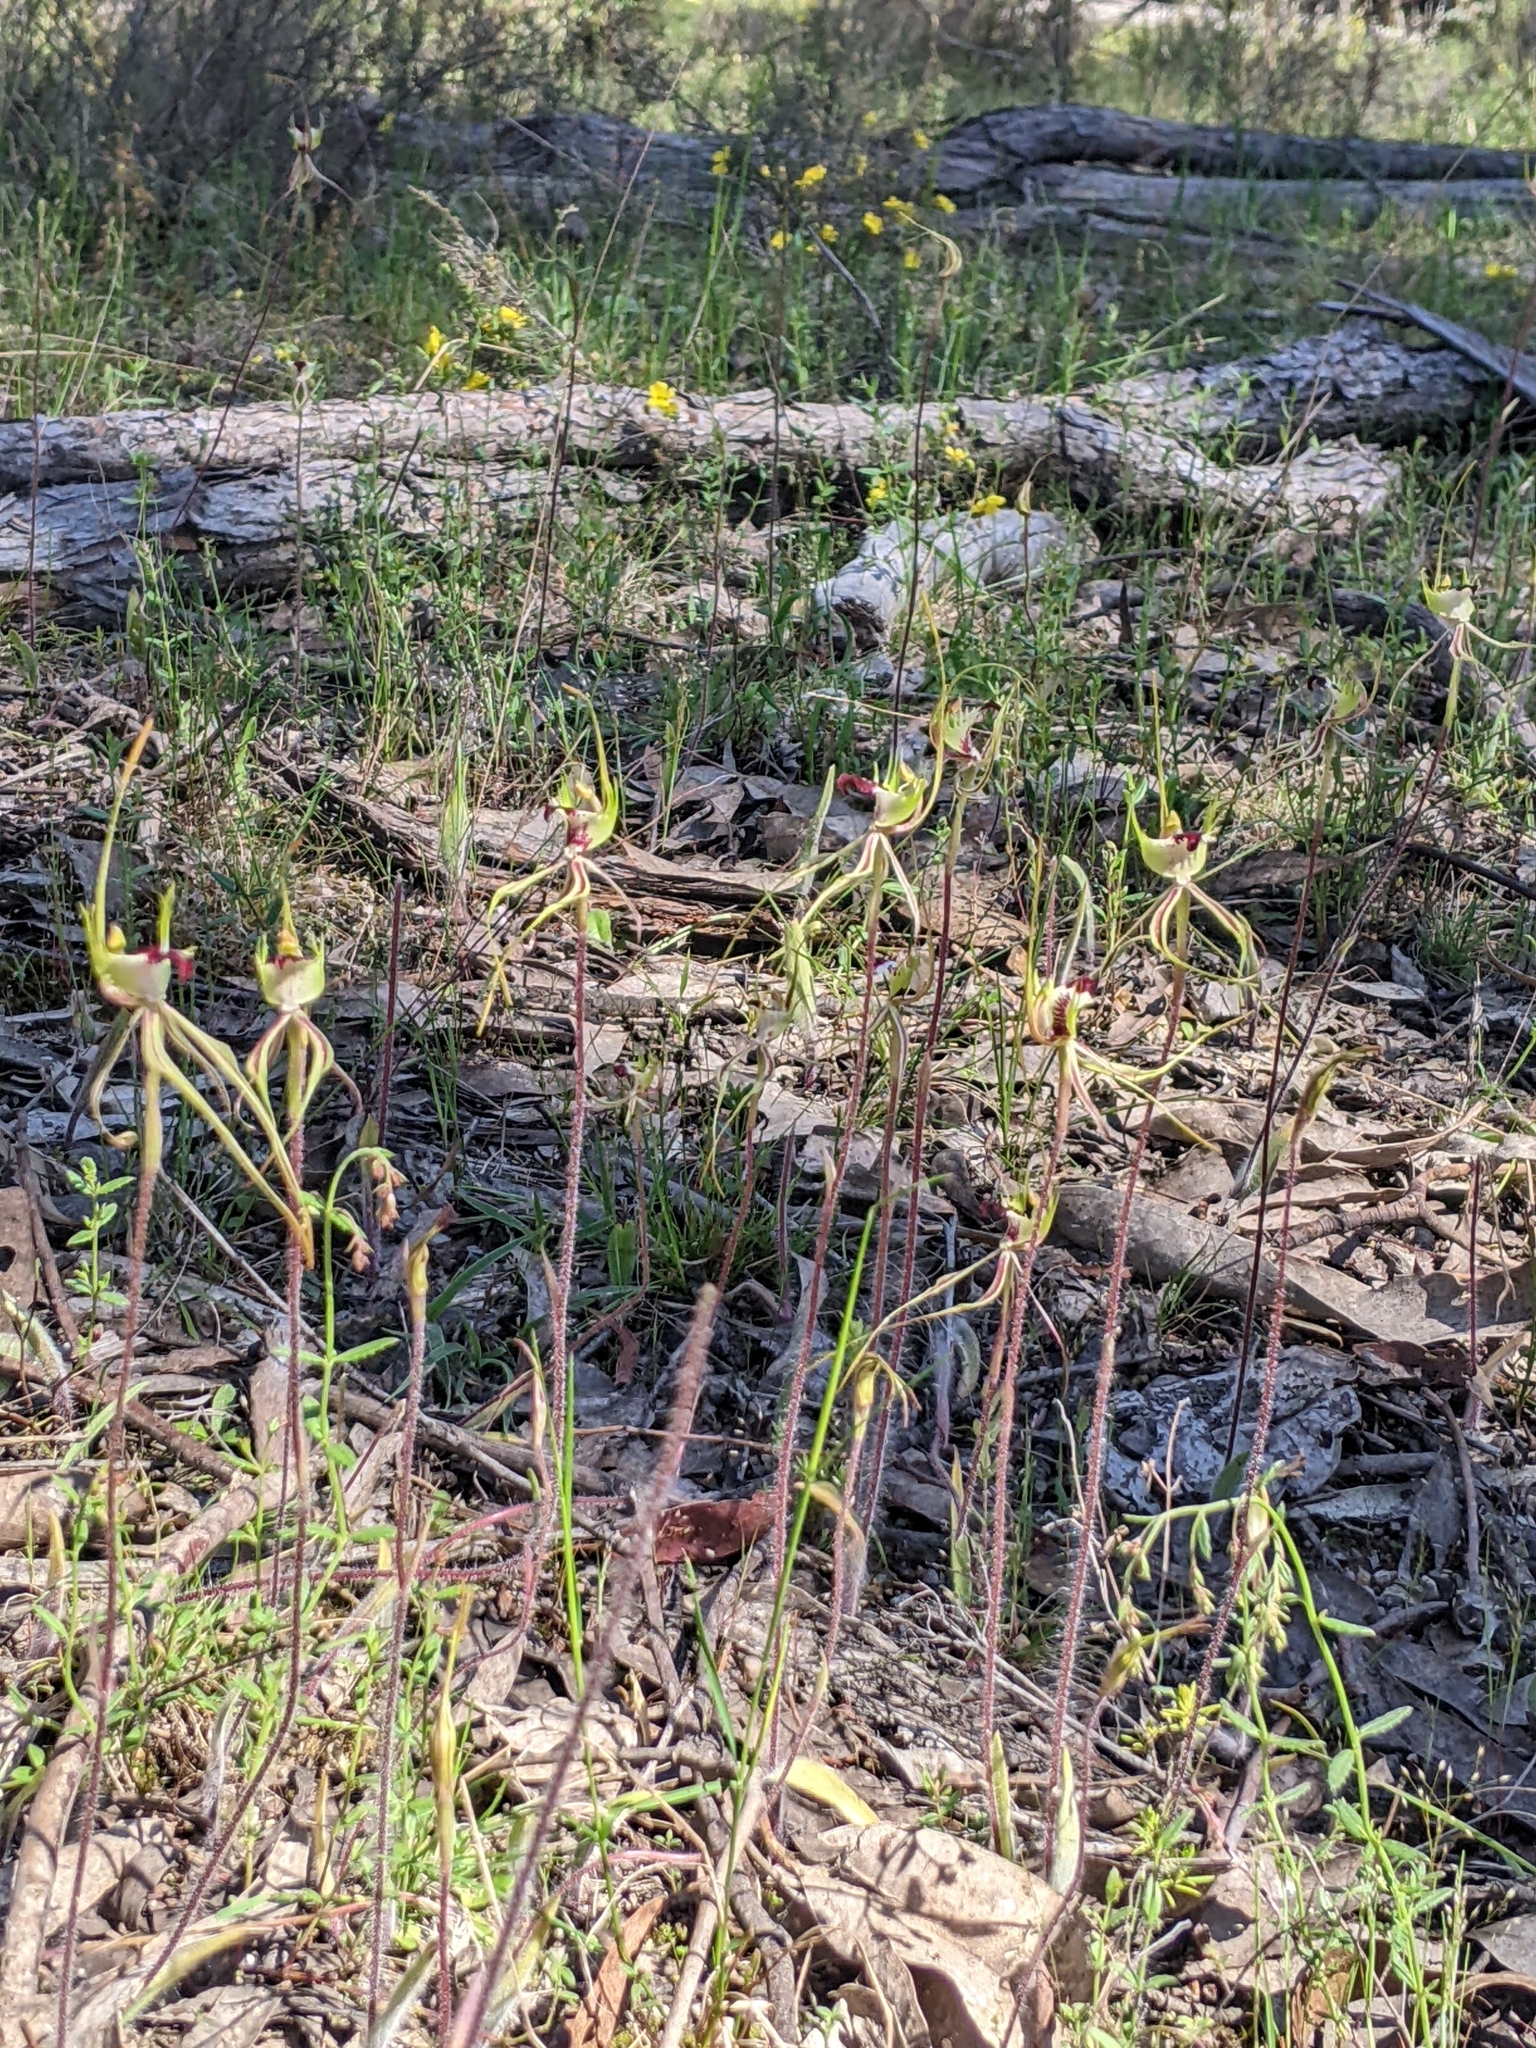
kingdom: Plantae
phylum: Tracheophyta
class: Liliopsida
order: Asparagales
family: Orchidaceae
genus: Caladenia
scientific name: Caladenia tentaculata
